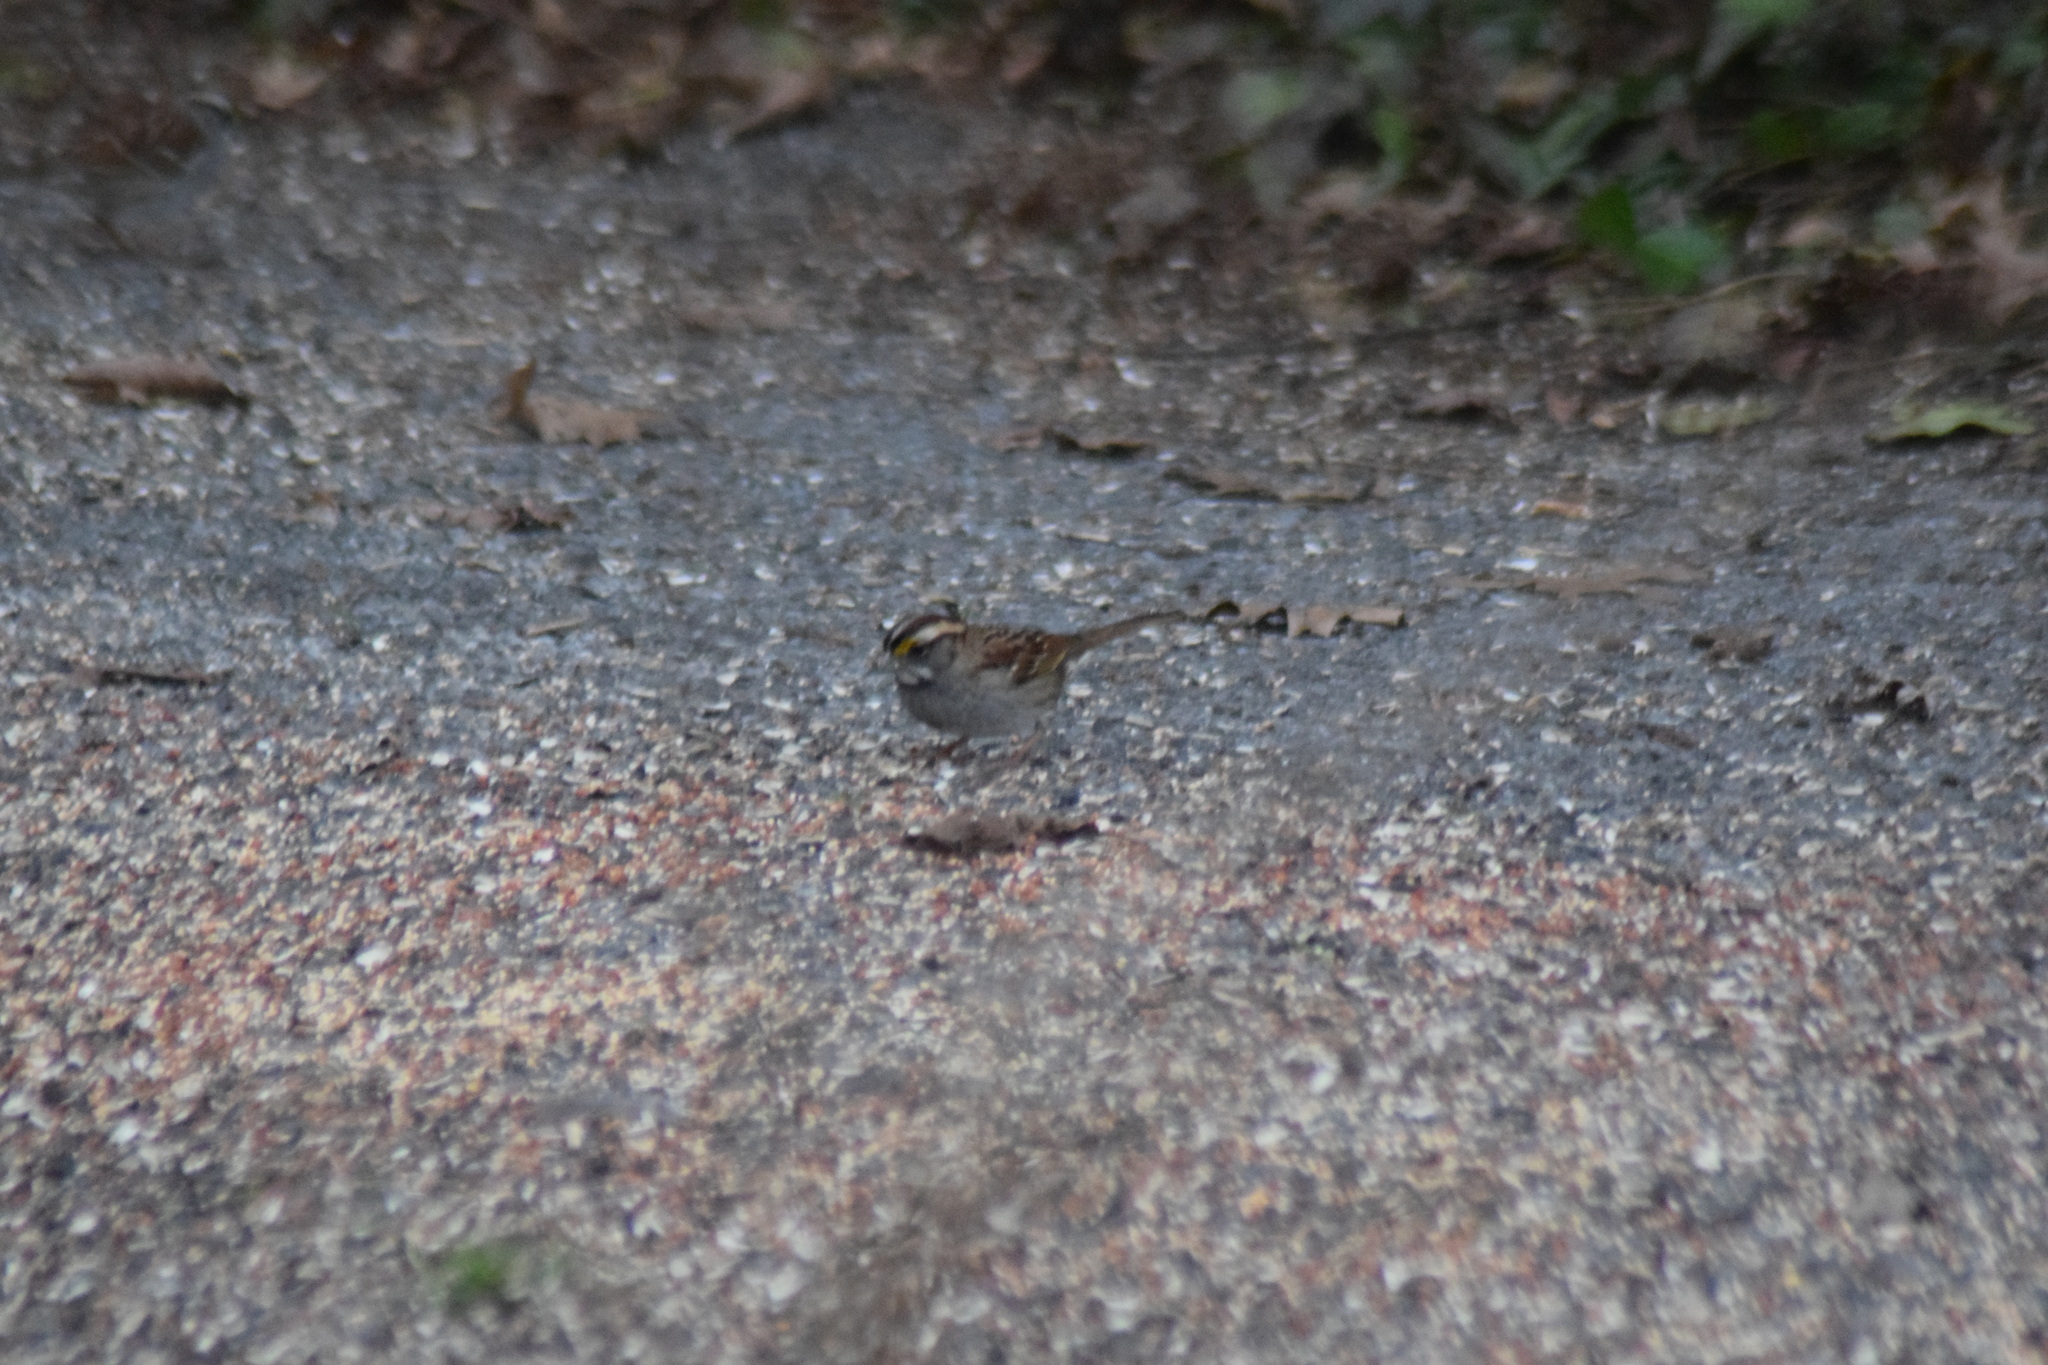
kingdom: Animalia
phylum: Chordata
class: Aves
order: Passeriformes
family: Passerellidae
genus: Zonotrichia
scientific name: Zonotrichia albicollis
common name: White-throated sparrow
